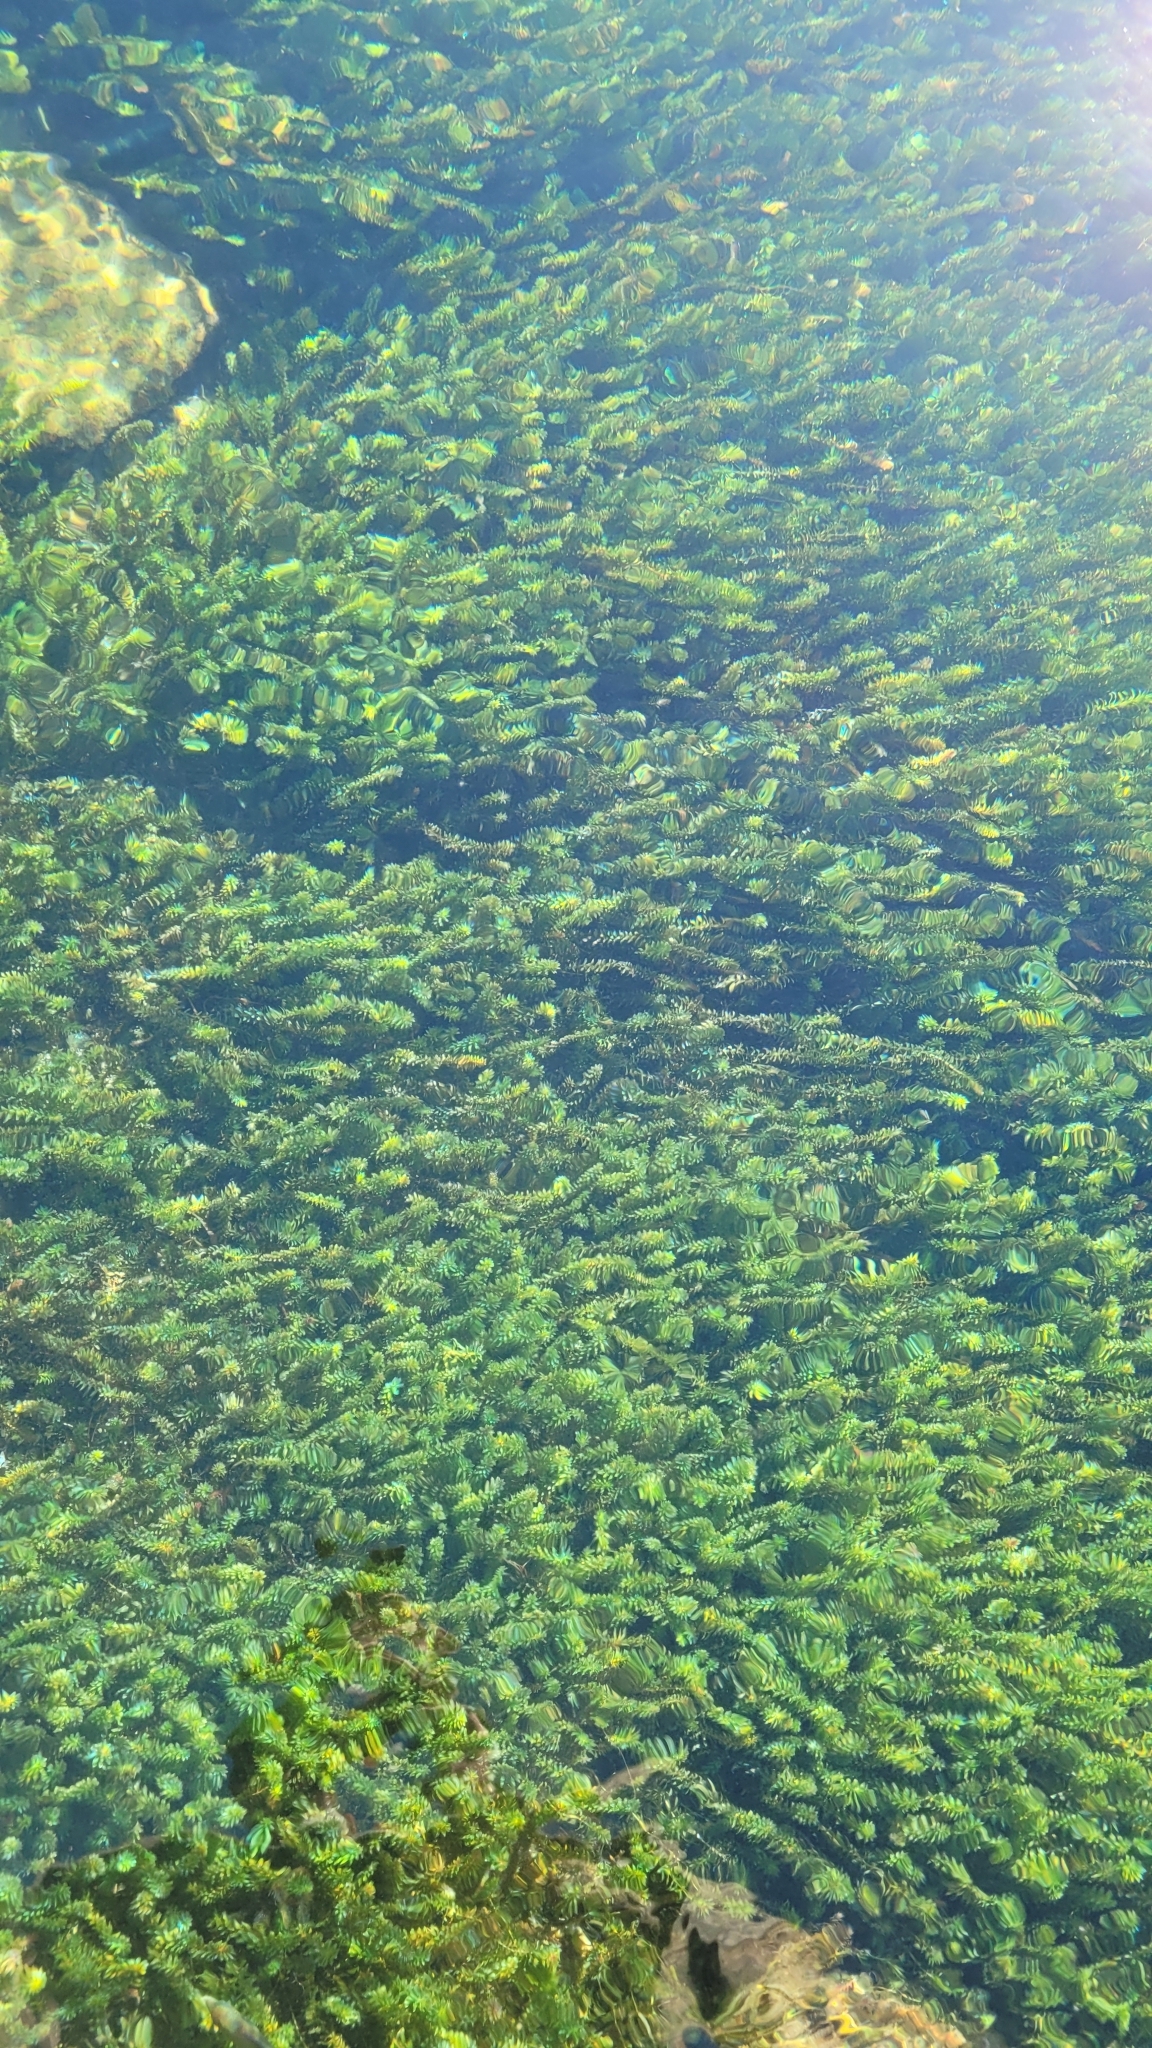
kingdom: Plantae
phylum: Tracheophyta
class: Liliopsida
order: Alismatales
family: Hydrocharitaceae
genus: Hydrilla
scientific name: Hydrilla verticillata
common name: Florida-elodea
